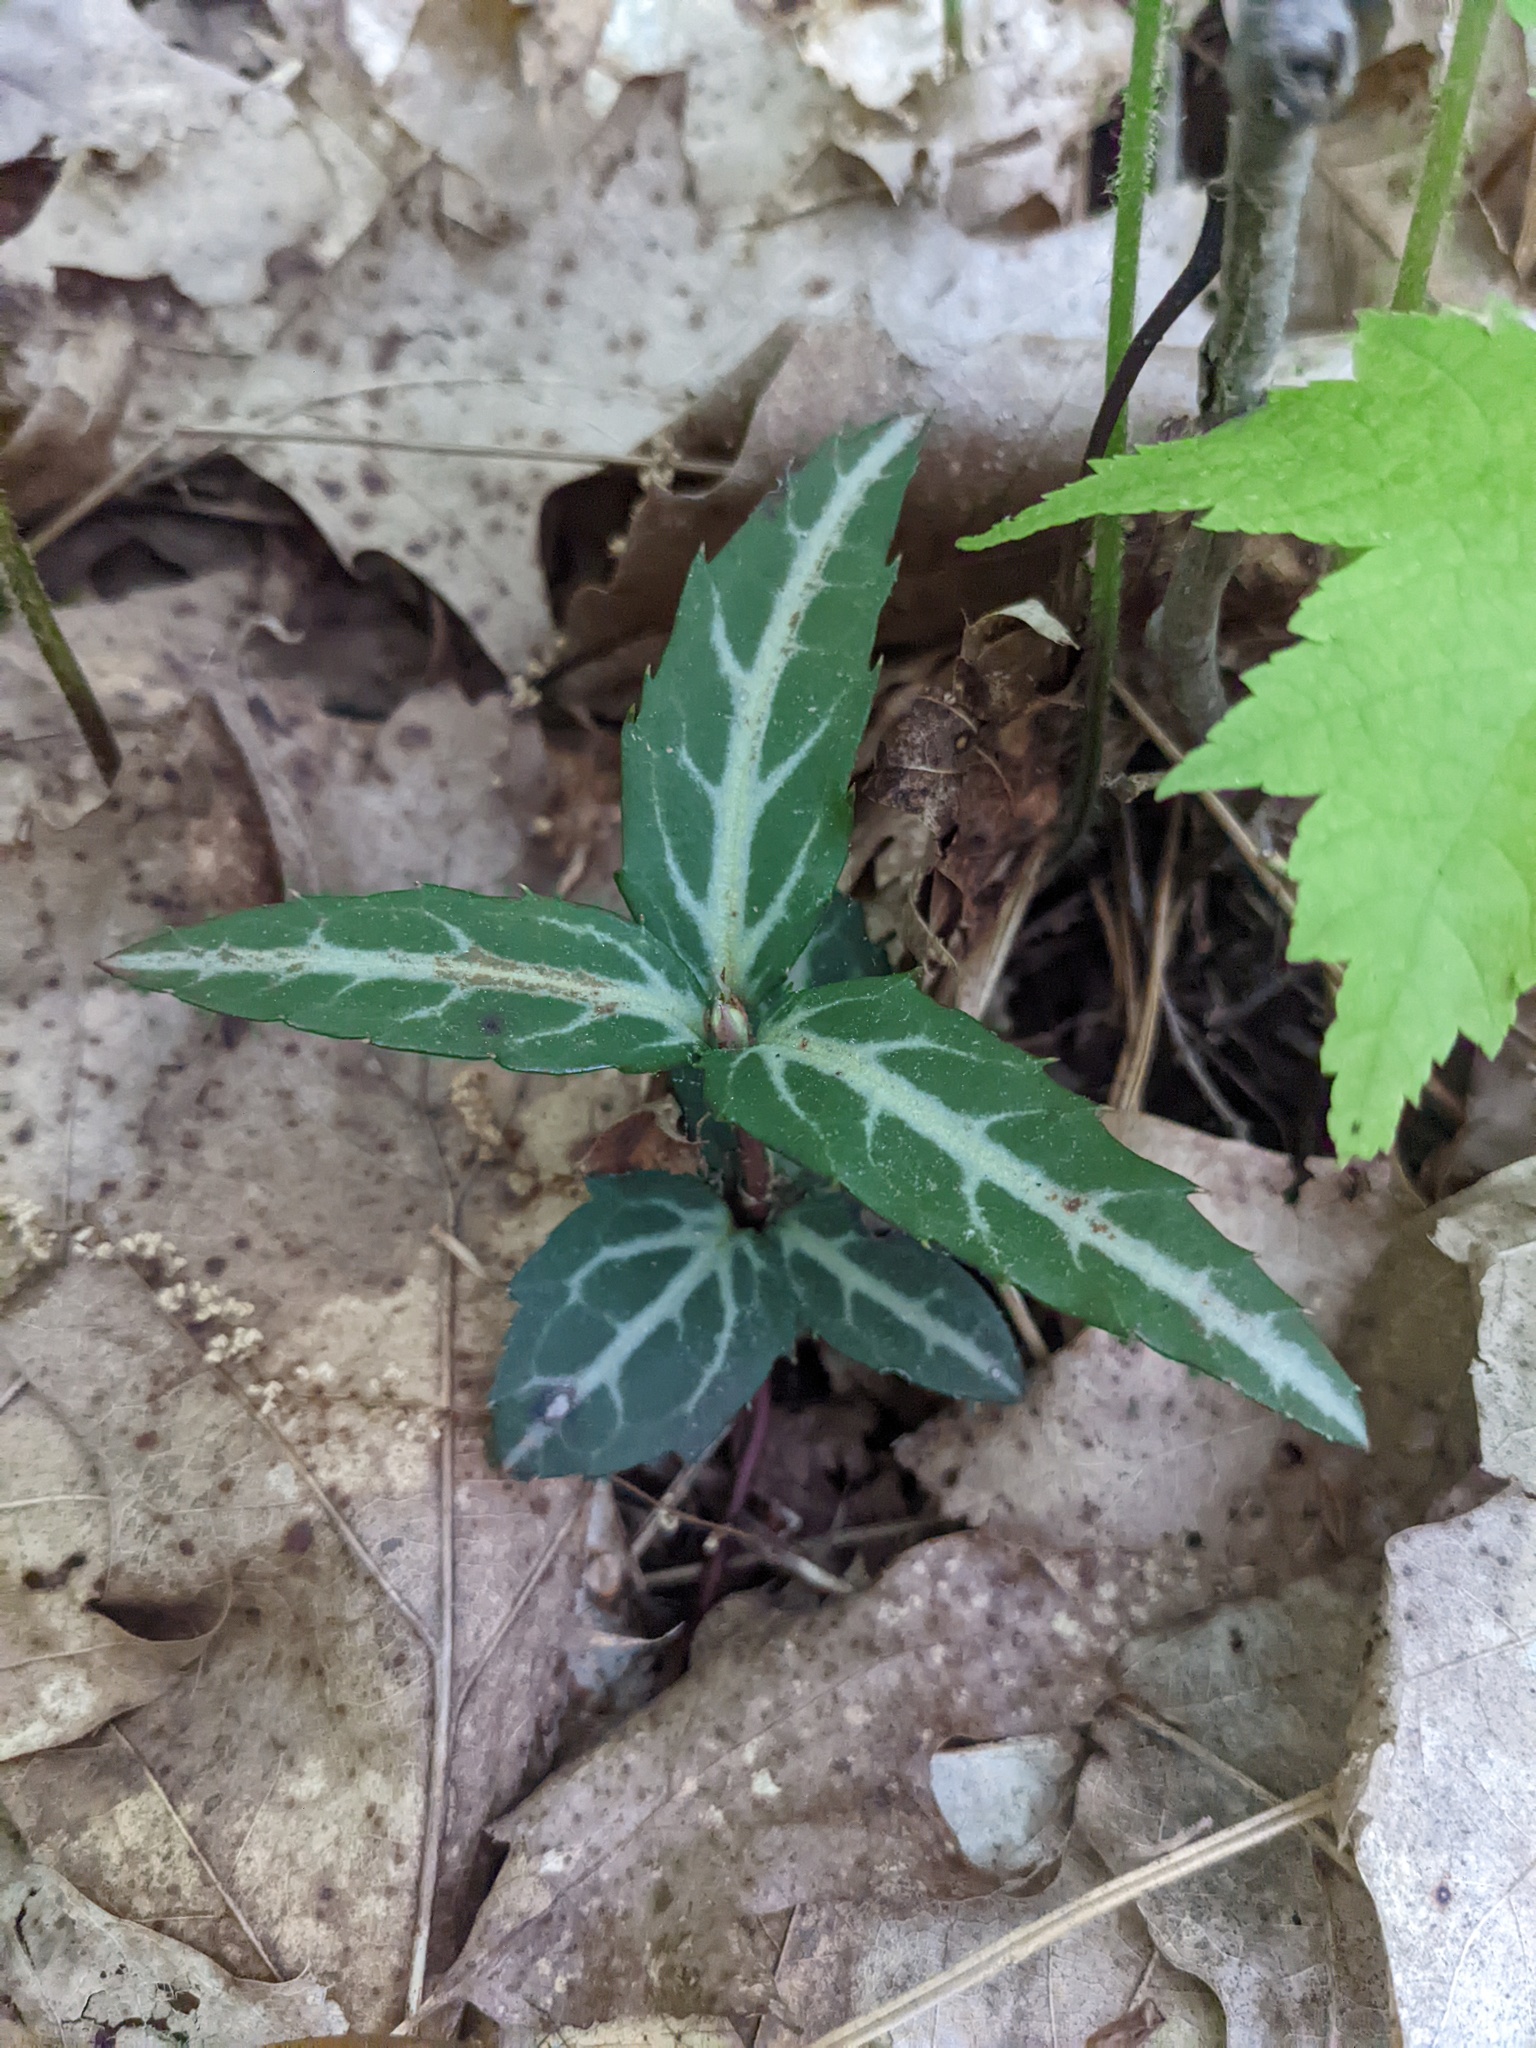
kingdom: Plantae
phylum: Tracheophyta
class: Magnoliopsida
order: Ericales
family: Ericaceae
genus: Chimaphila
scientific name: Chimaphila maculata
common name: Spotted pipsissewa
